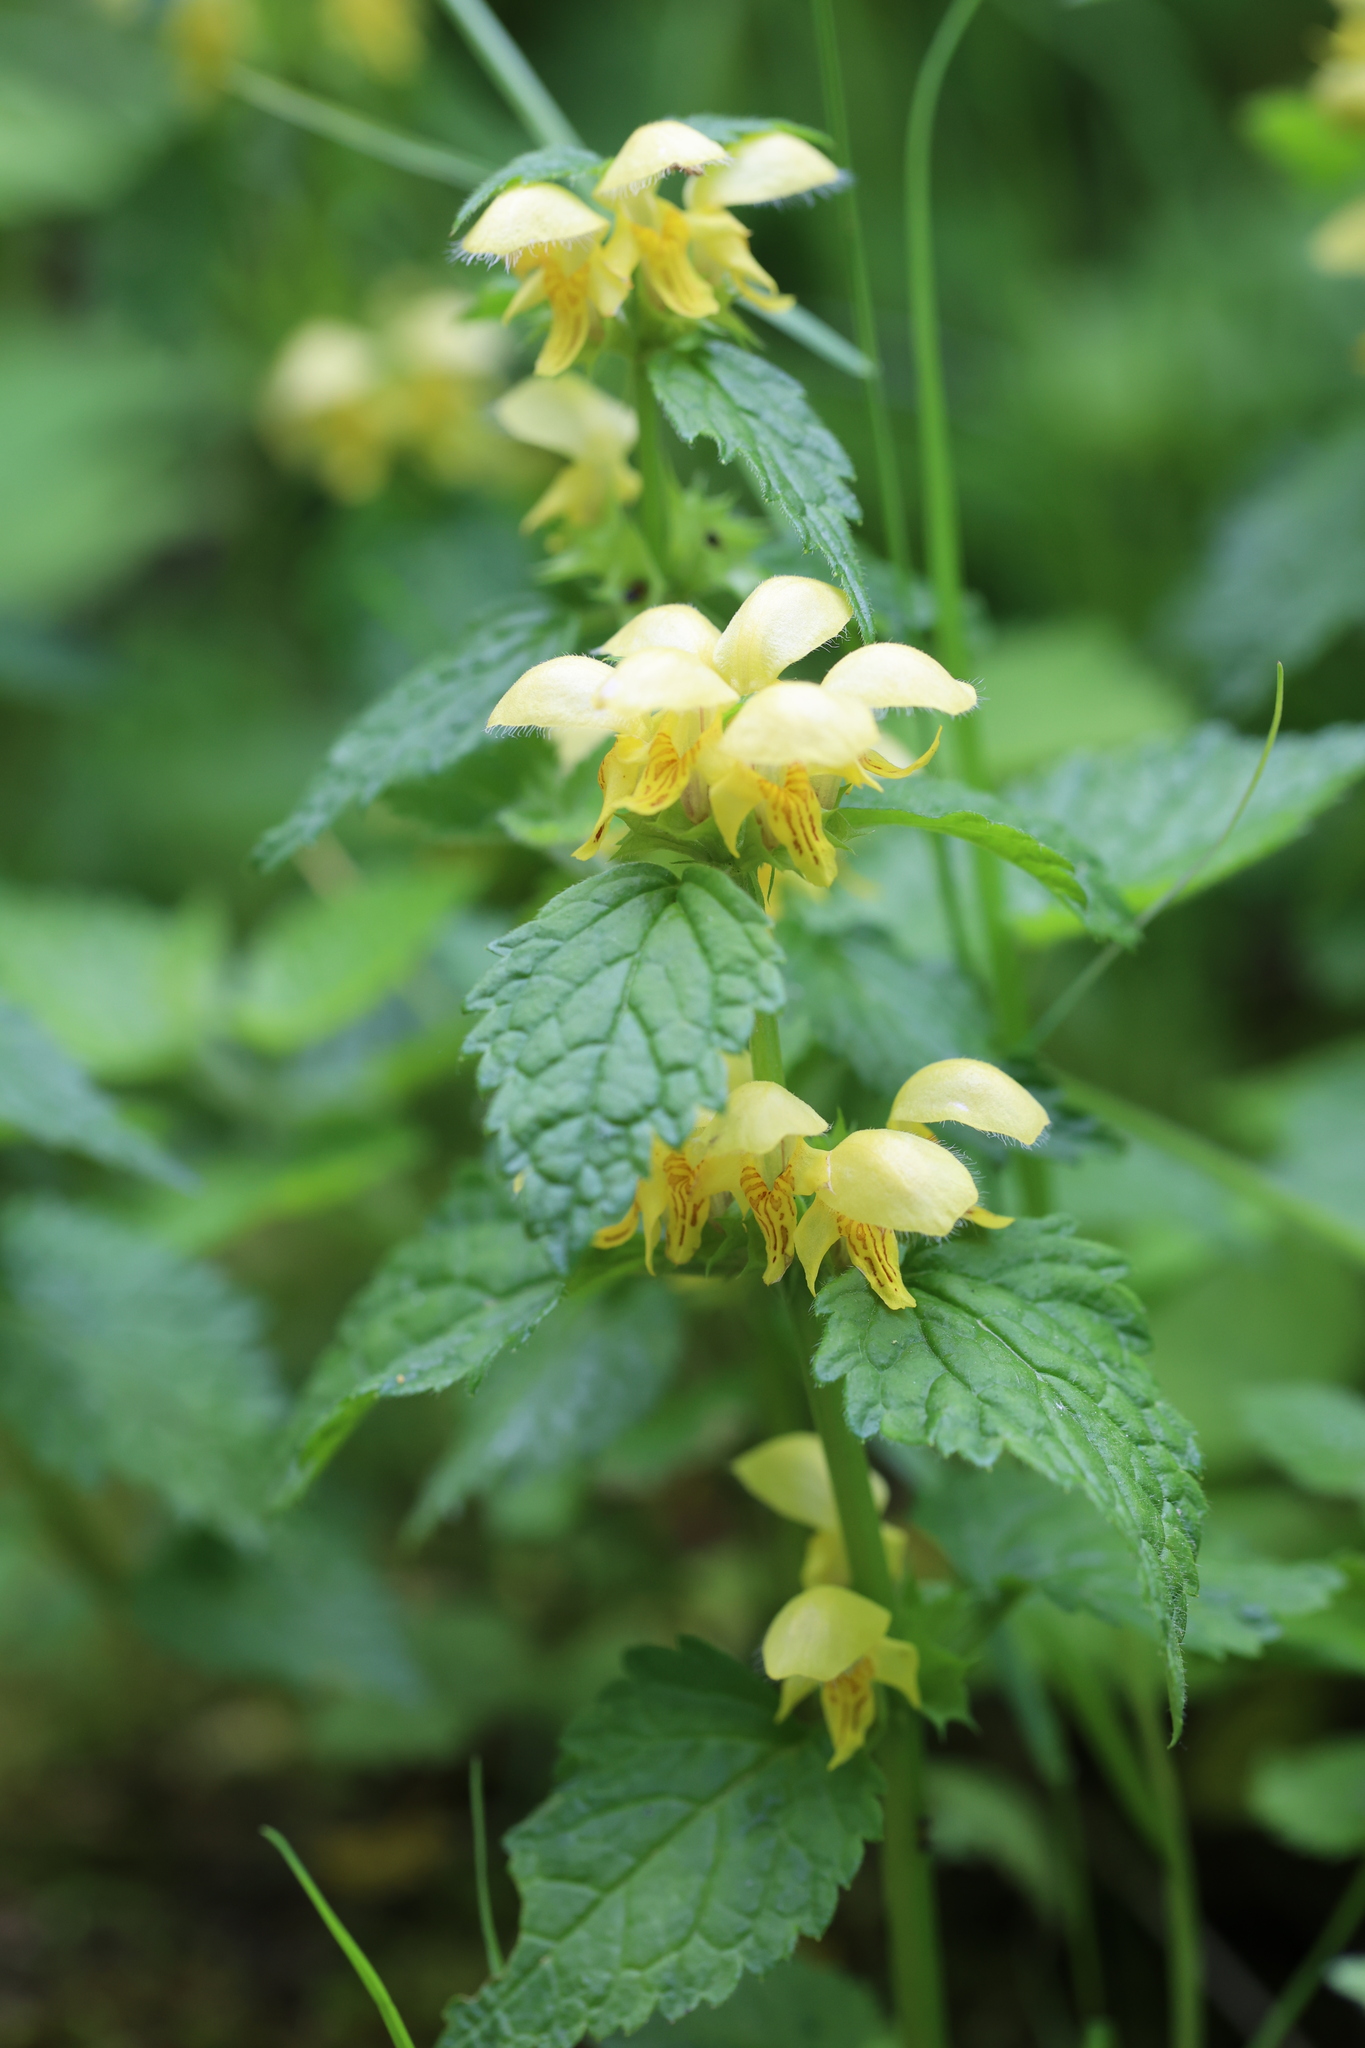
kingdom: Plantae
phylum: Tracheophyta
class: Magnoliopsida
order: Lamiales
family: Lamiaceae
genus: Lamium
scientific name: Lamium galeobdolon
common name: Yellow archangel
